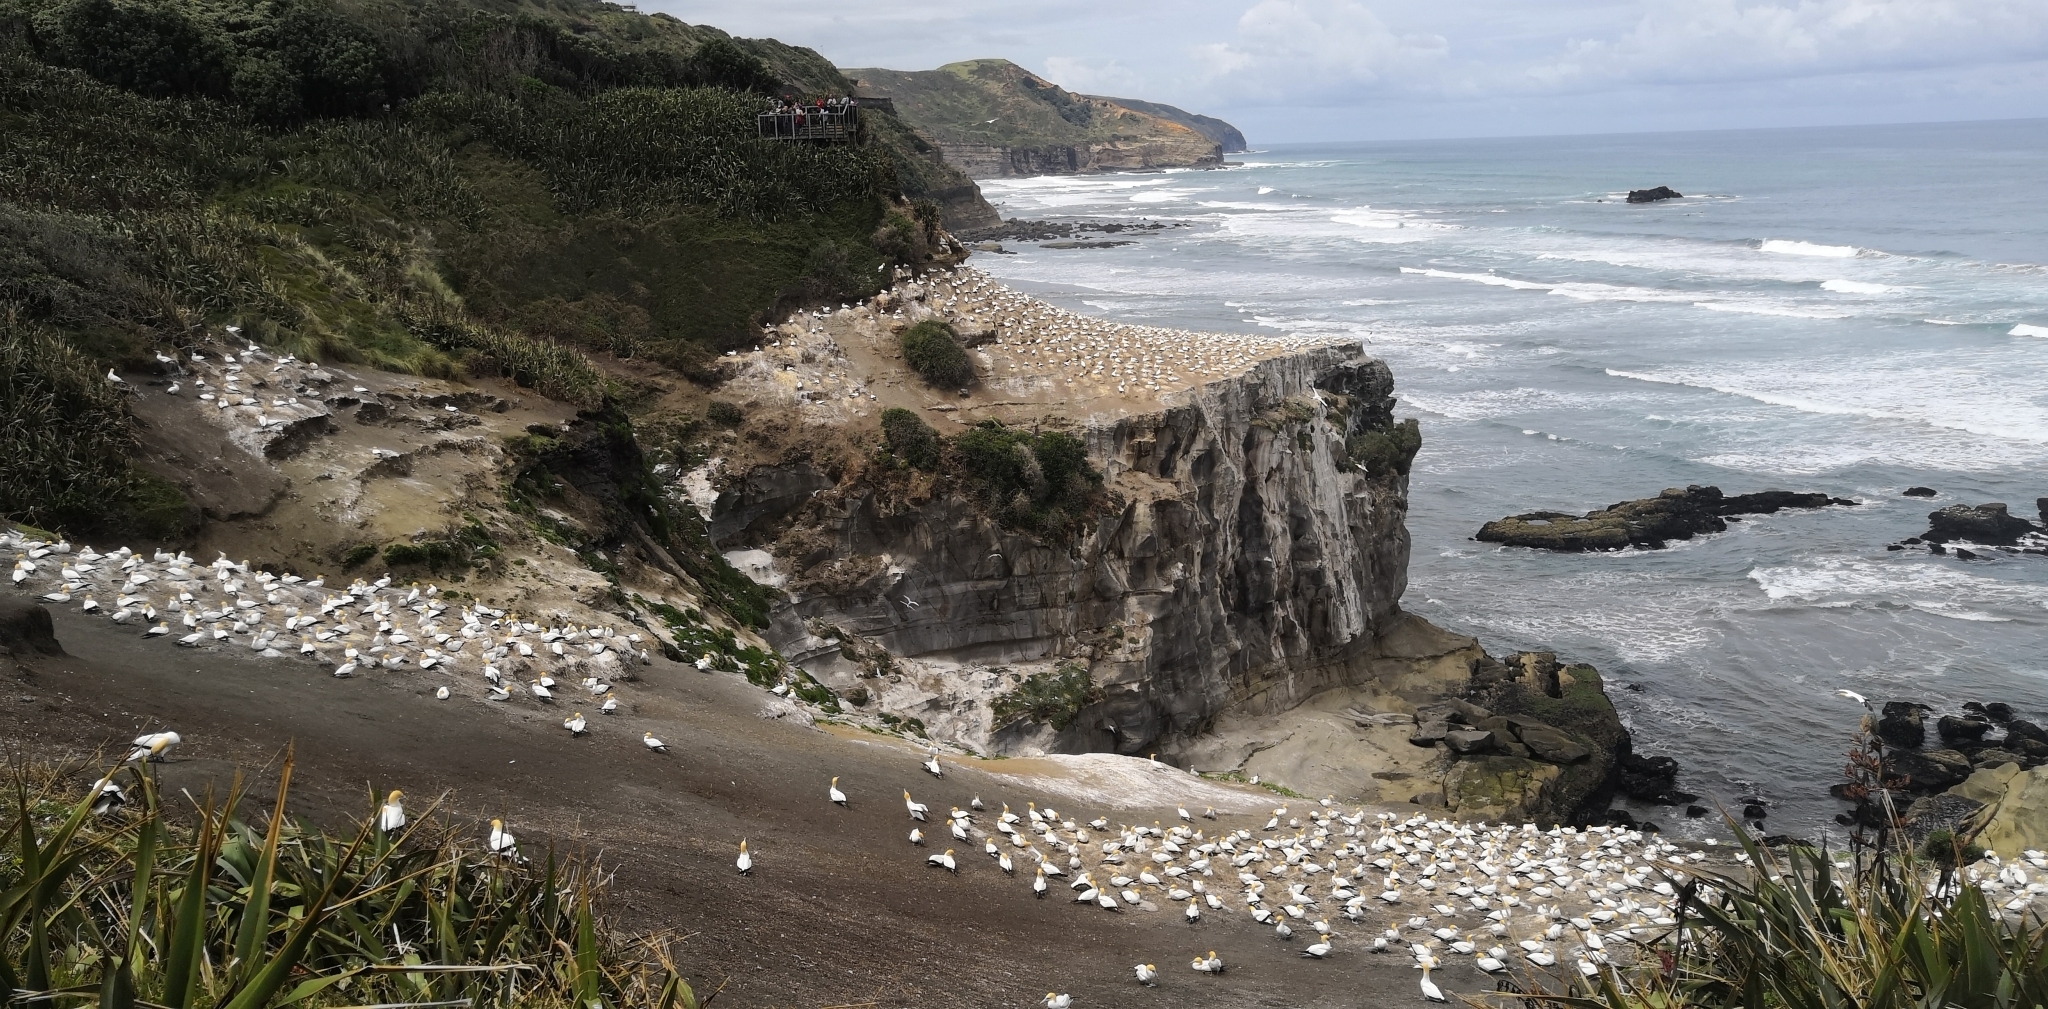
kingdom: Animalia
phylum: Chordata
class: Aves
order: Suliformes
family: Sulidae
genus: Morus
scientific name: Morus serrator
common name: Australasian gannet
